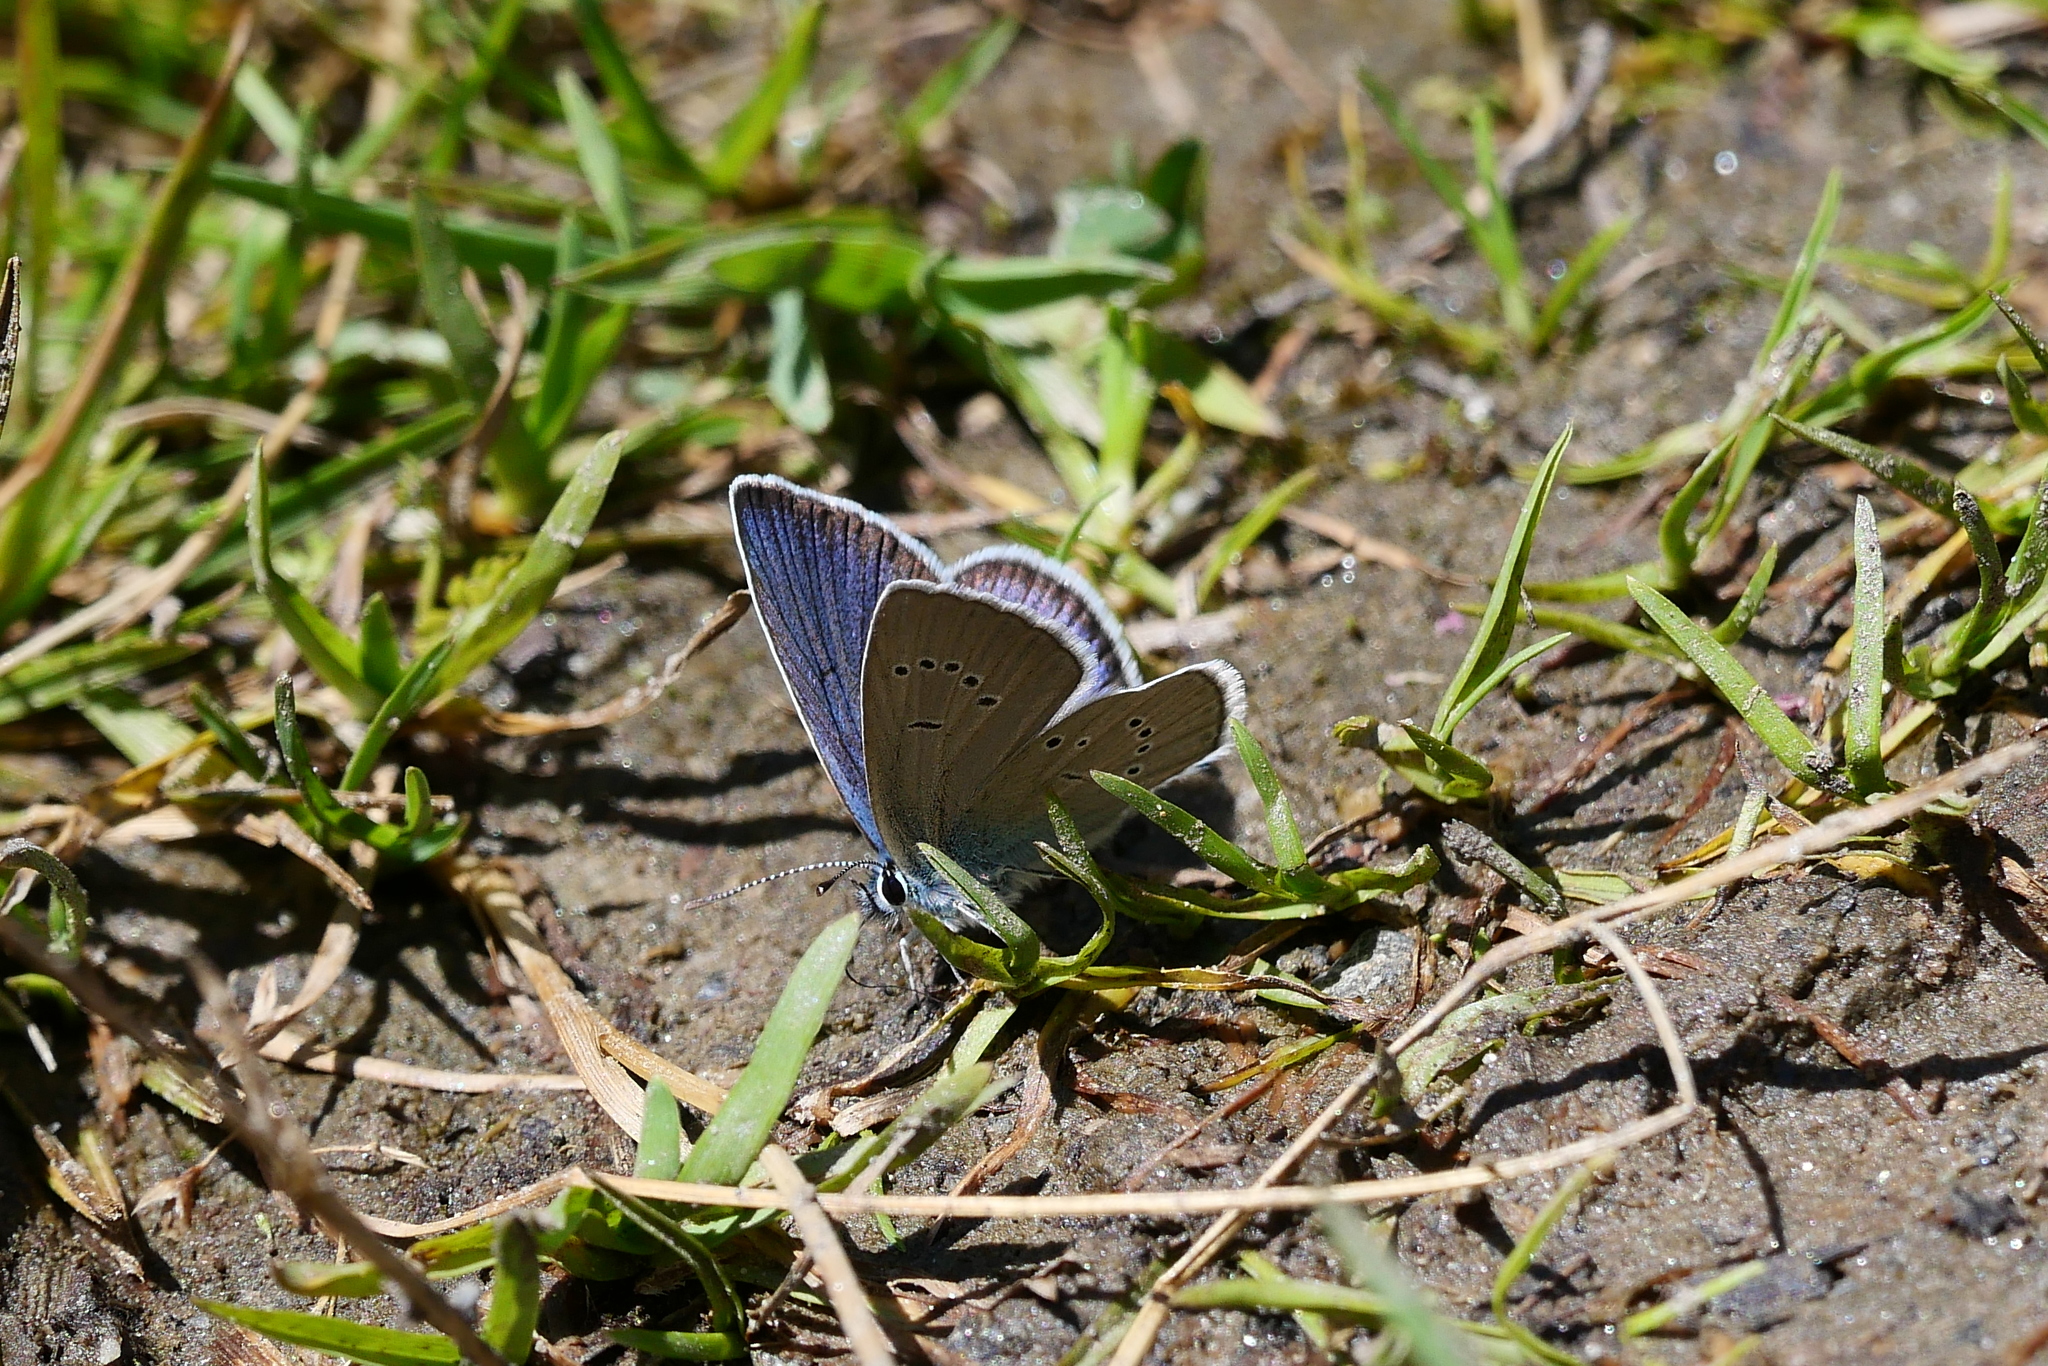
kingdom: Animalia
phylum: Arthropoda
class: Insecta
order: Lepidoptera
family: Lycaenidae
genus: Cyaniris
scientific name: Cyaniris semiargus
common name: Mazarine blue
